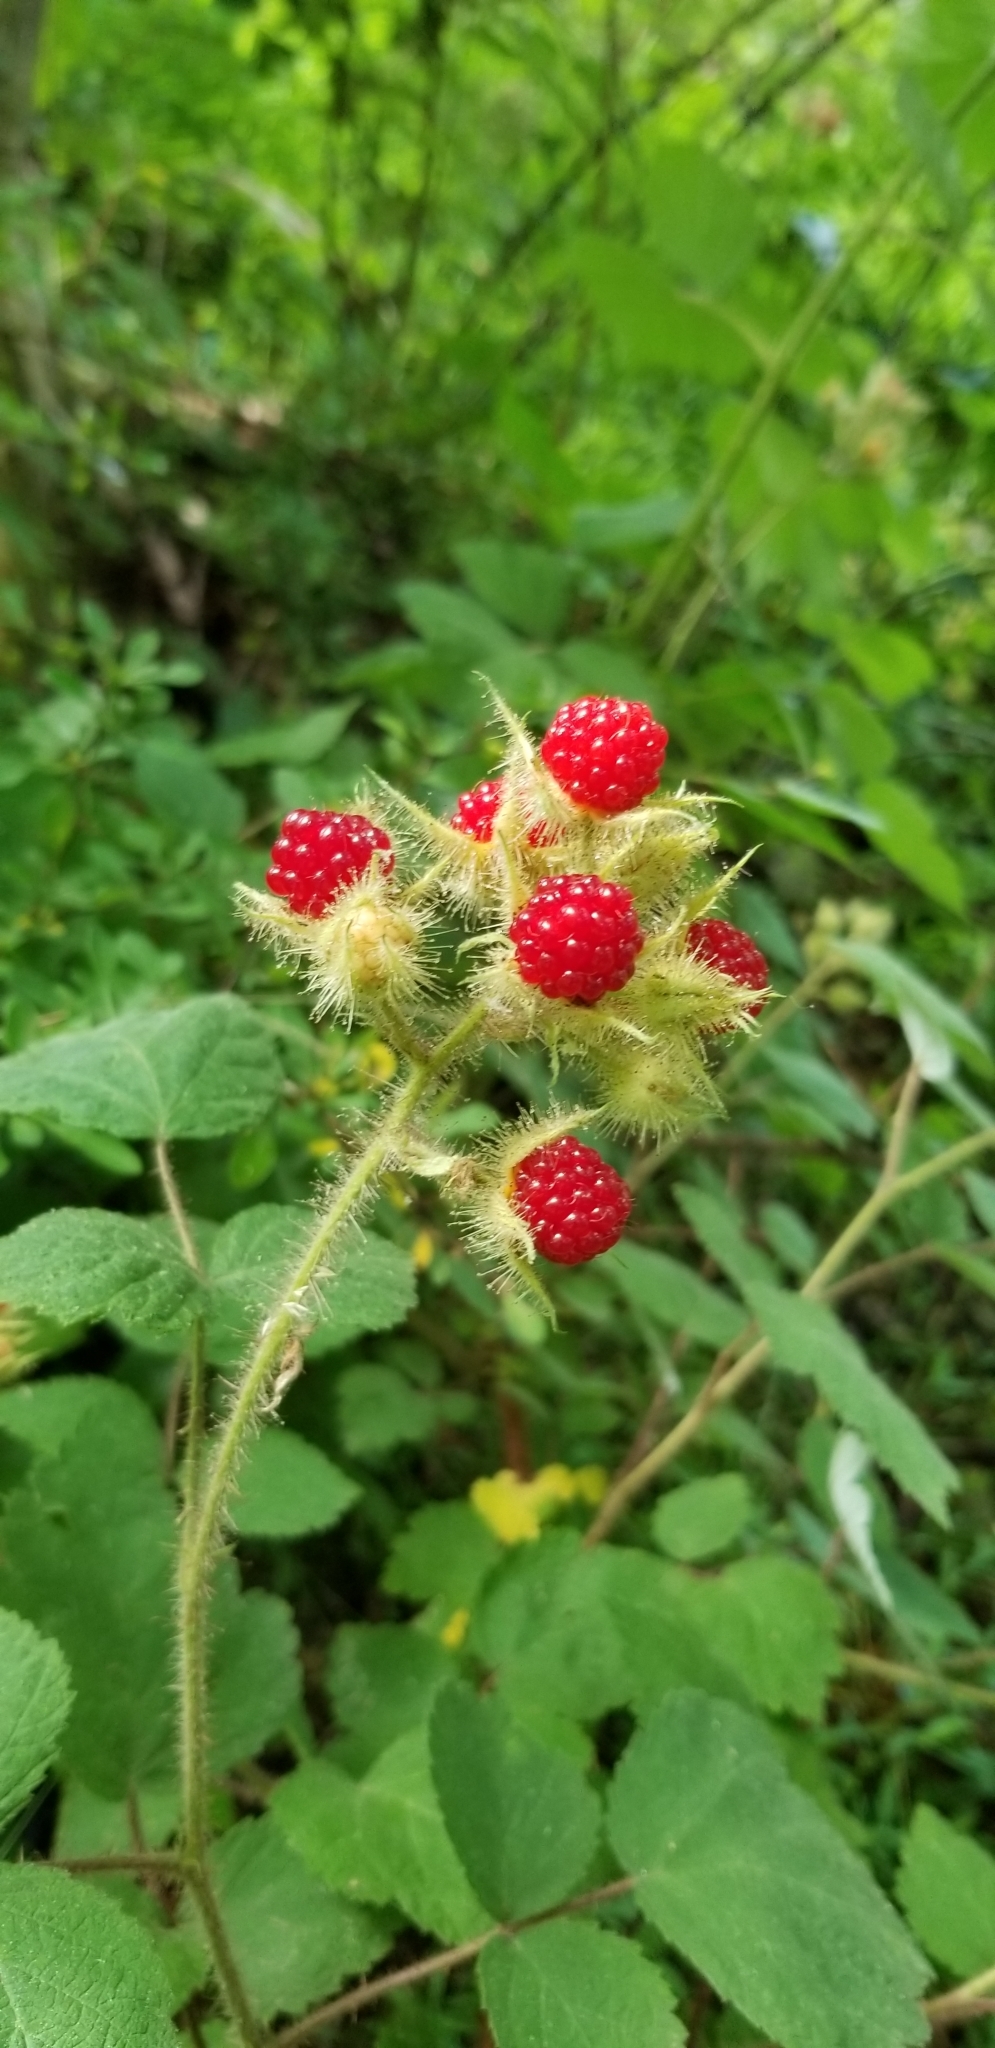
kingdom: Plantae
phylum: Tracheophyta
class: Magnoliopsida
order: Rosales
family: Rosaceae
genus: Rubus
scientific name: Rubus phoenicolasius
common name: Japanese wineberry
